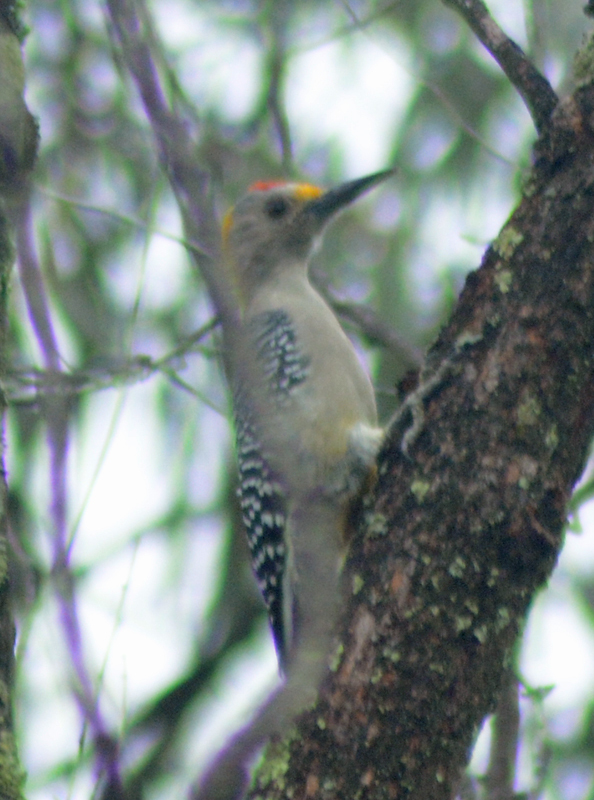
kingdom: Animalia
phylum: Chordata
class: Aves
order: Piciformes
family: Picidae
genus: Melanerpes
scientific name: Melanerpes aurifrons
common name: Golden-fronted woodpecker
